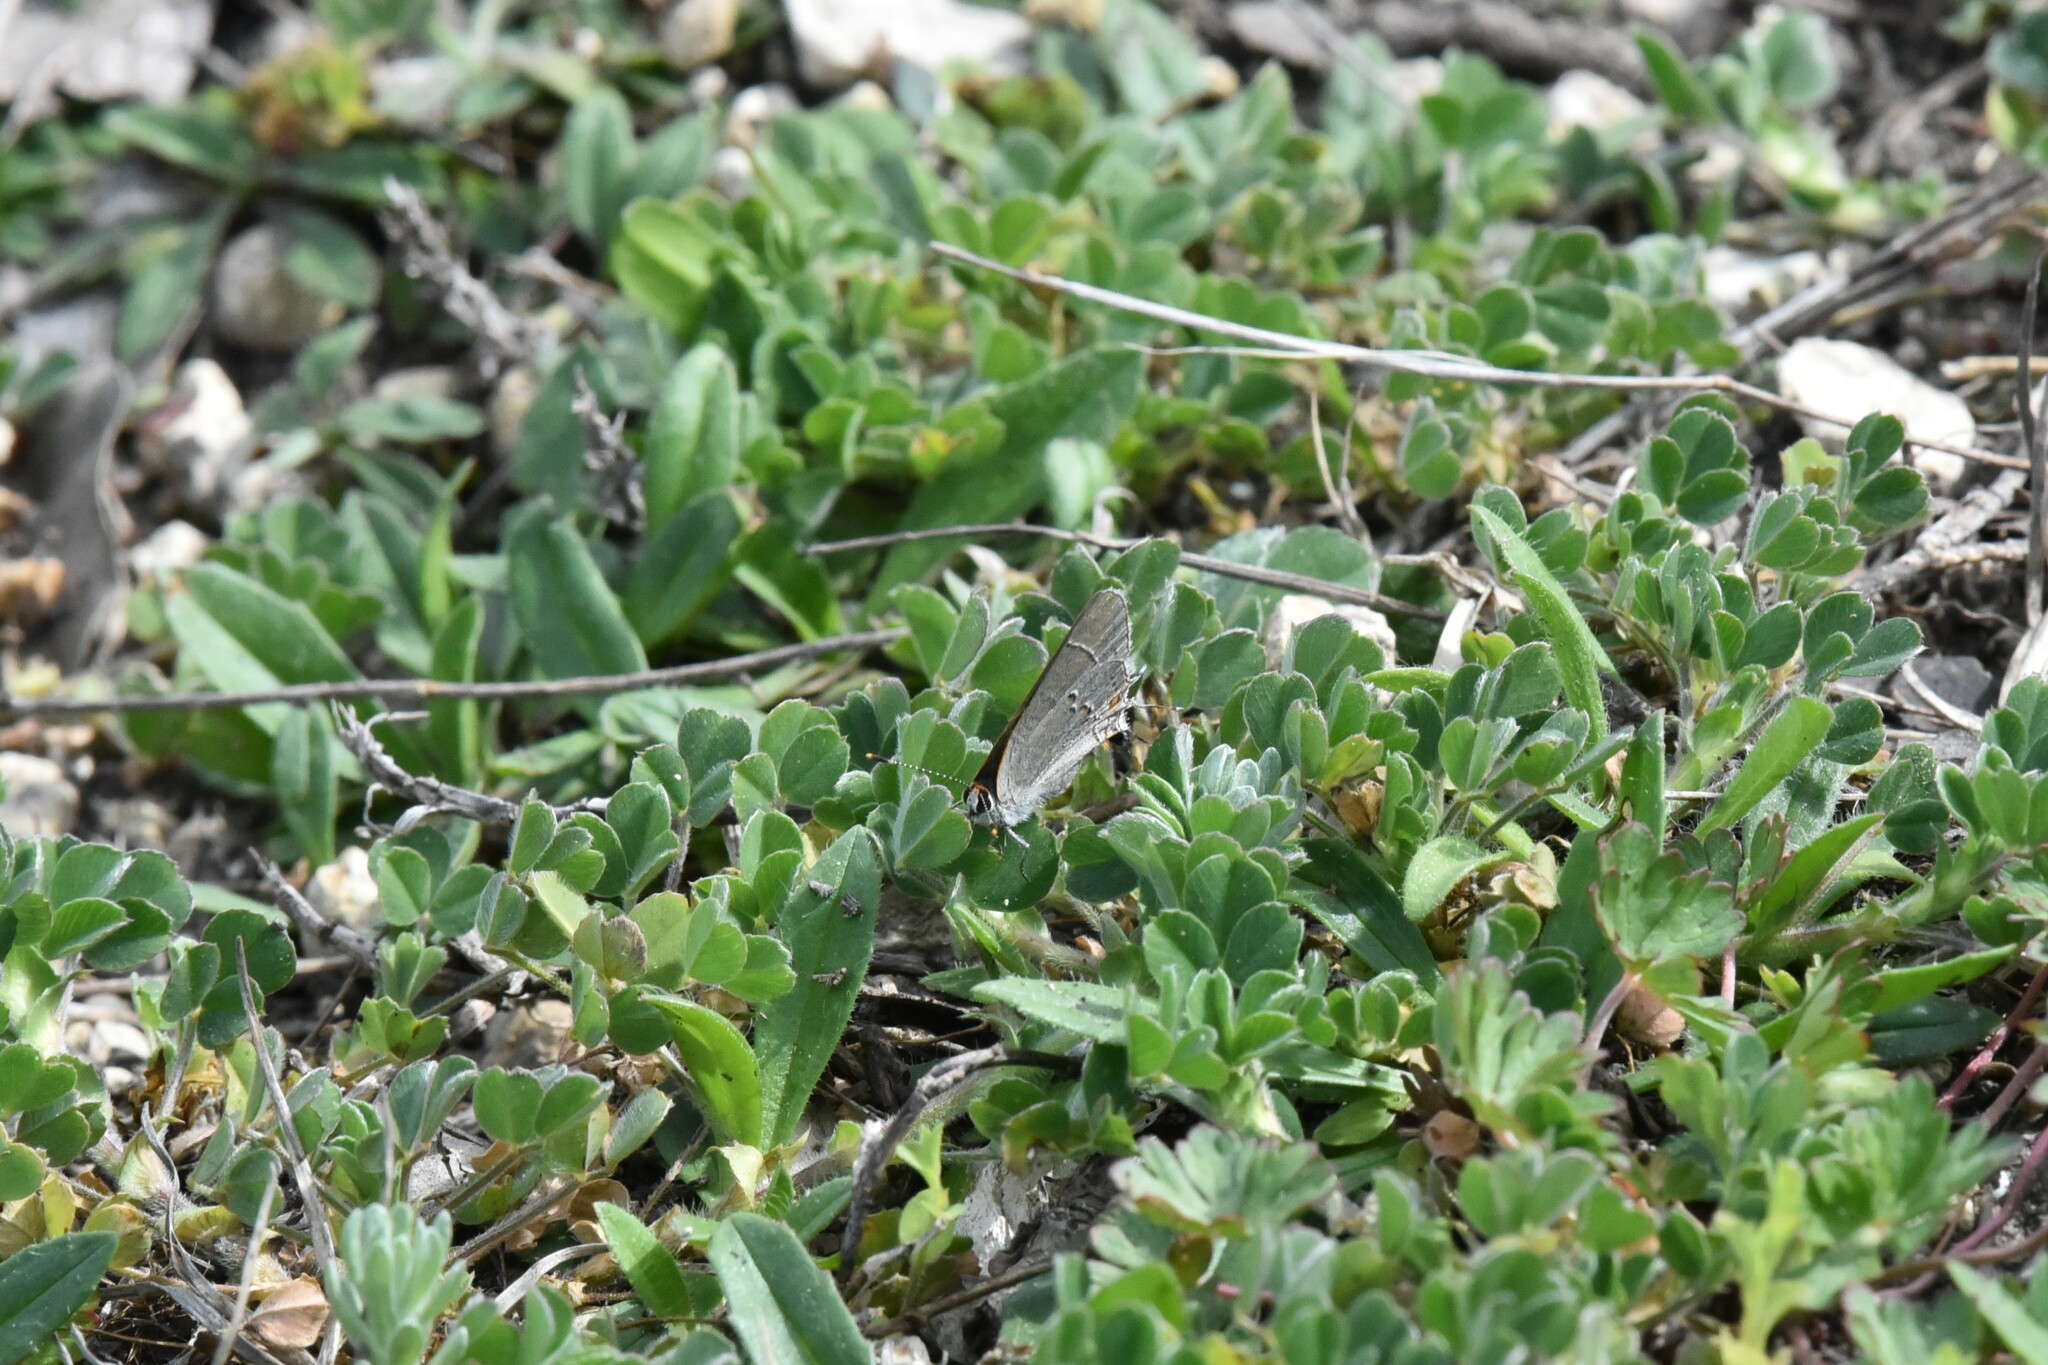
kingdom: Animalia
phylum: Arthropoda
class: Insecta
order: Lepidoptera
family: Lycaenidae
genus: Strymon
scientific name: Strymon melinus
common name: Gray hairstreak
